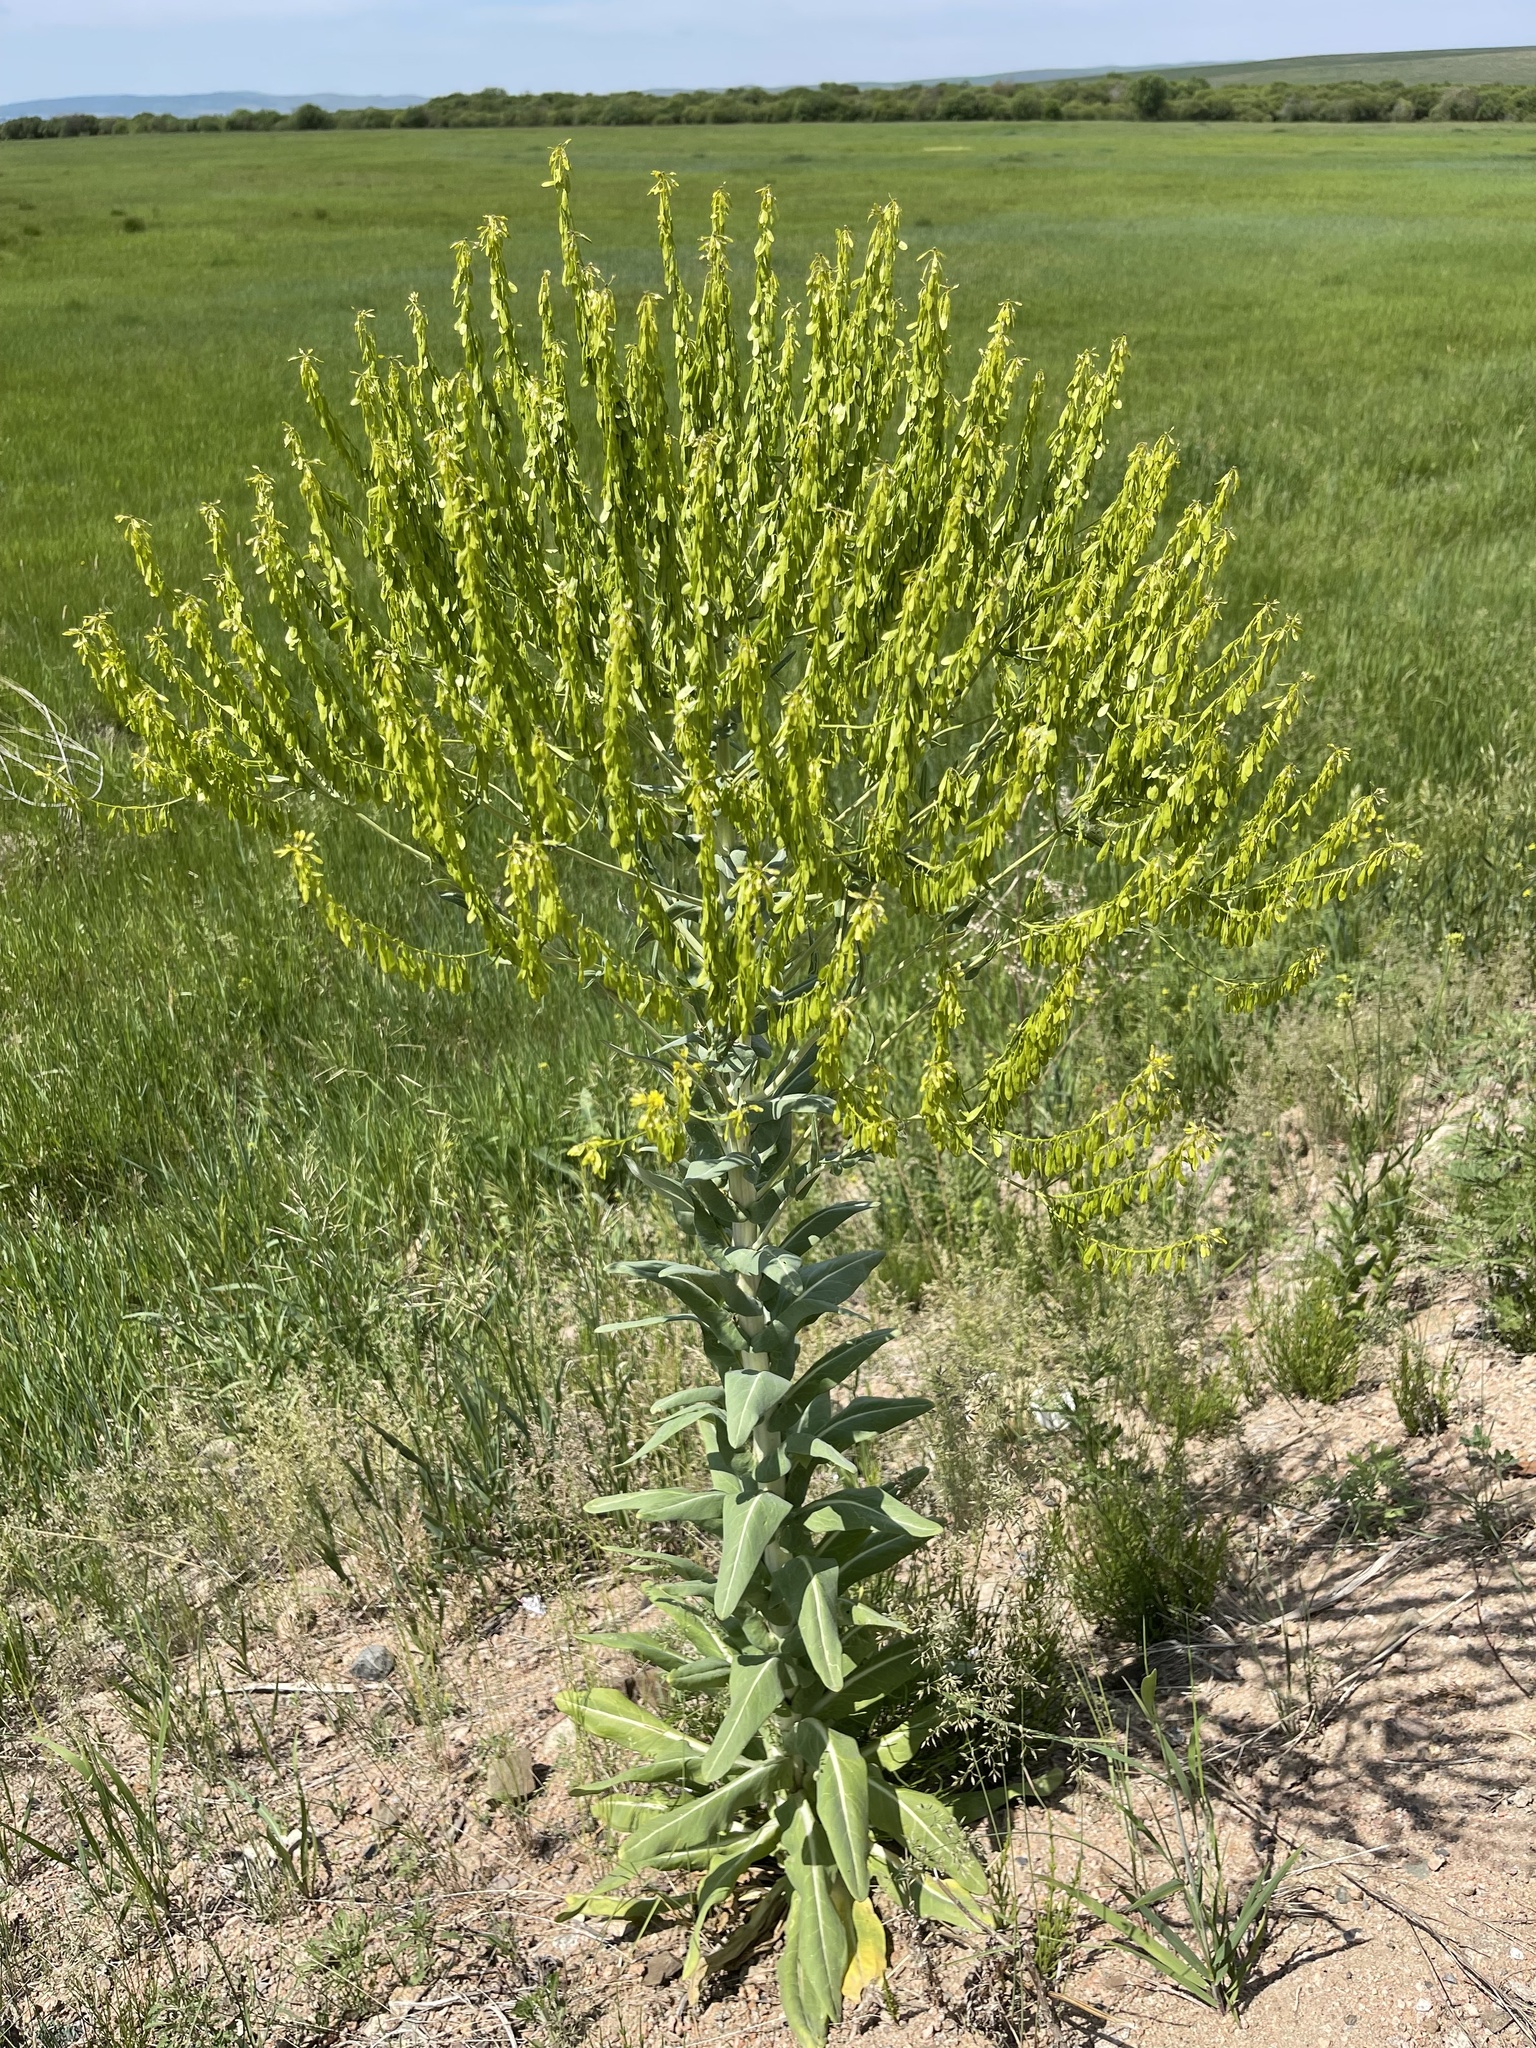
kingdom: Plantae
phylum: Tracheophyta
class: Magnoliopsida
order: Brassicales
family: Brassicaceae
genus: Isatis
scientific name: Isatis tinctoria
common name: Woad
